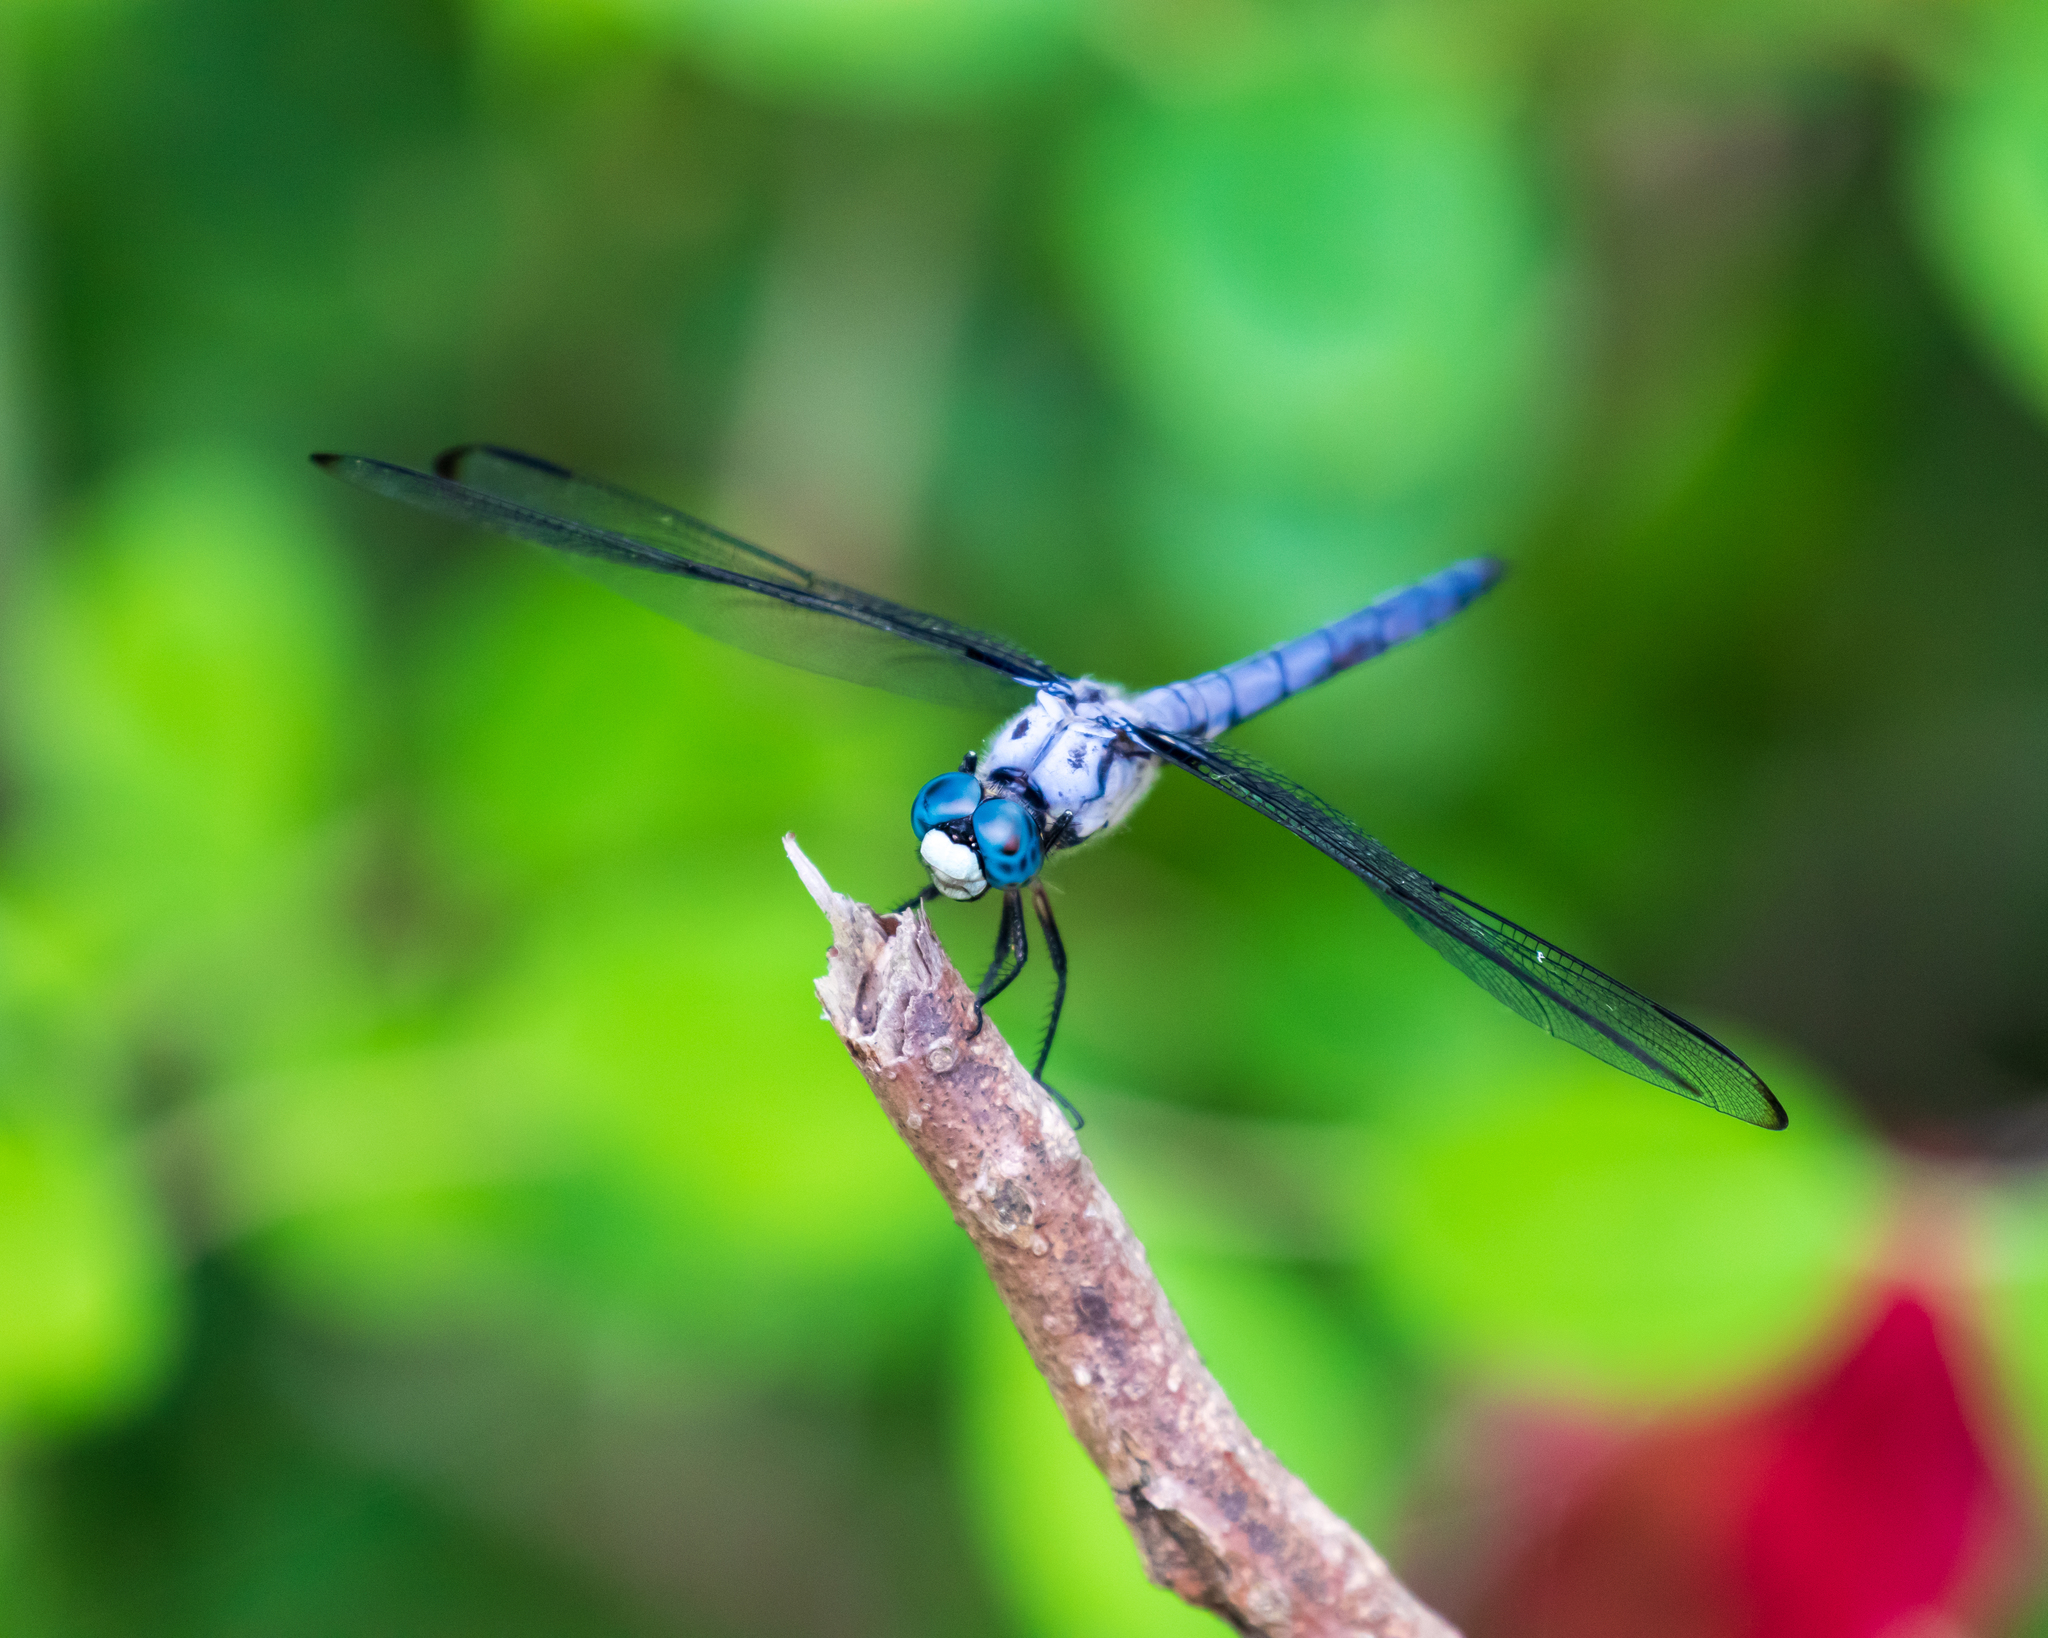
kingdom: Animalia
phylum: Arthropoda
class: Insecta
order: Odonata
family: Libellulidae
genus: Libellula
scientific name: Libellula vibrans
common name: Great blue skimmer
